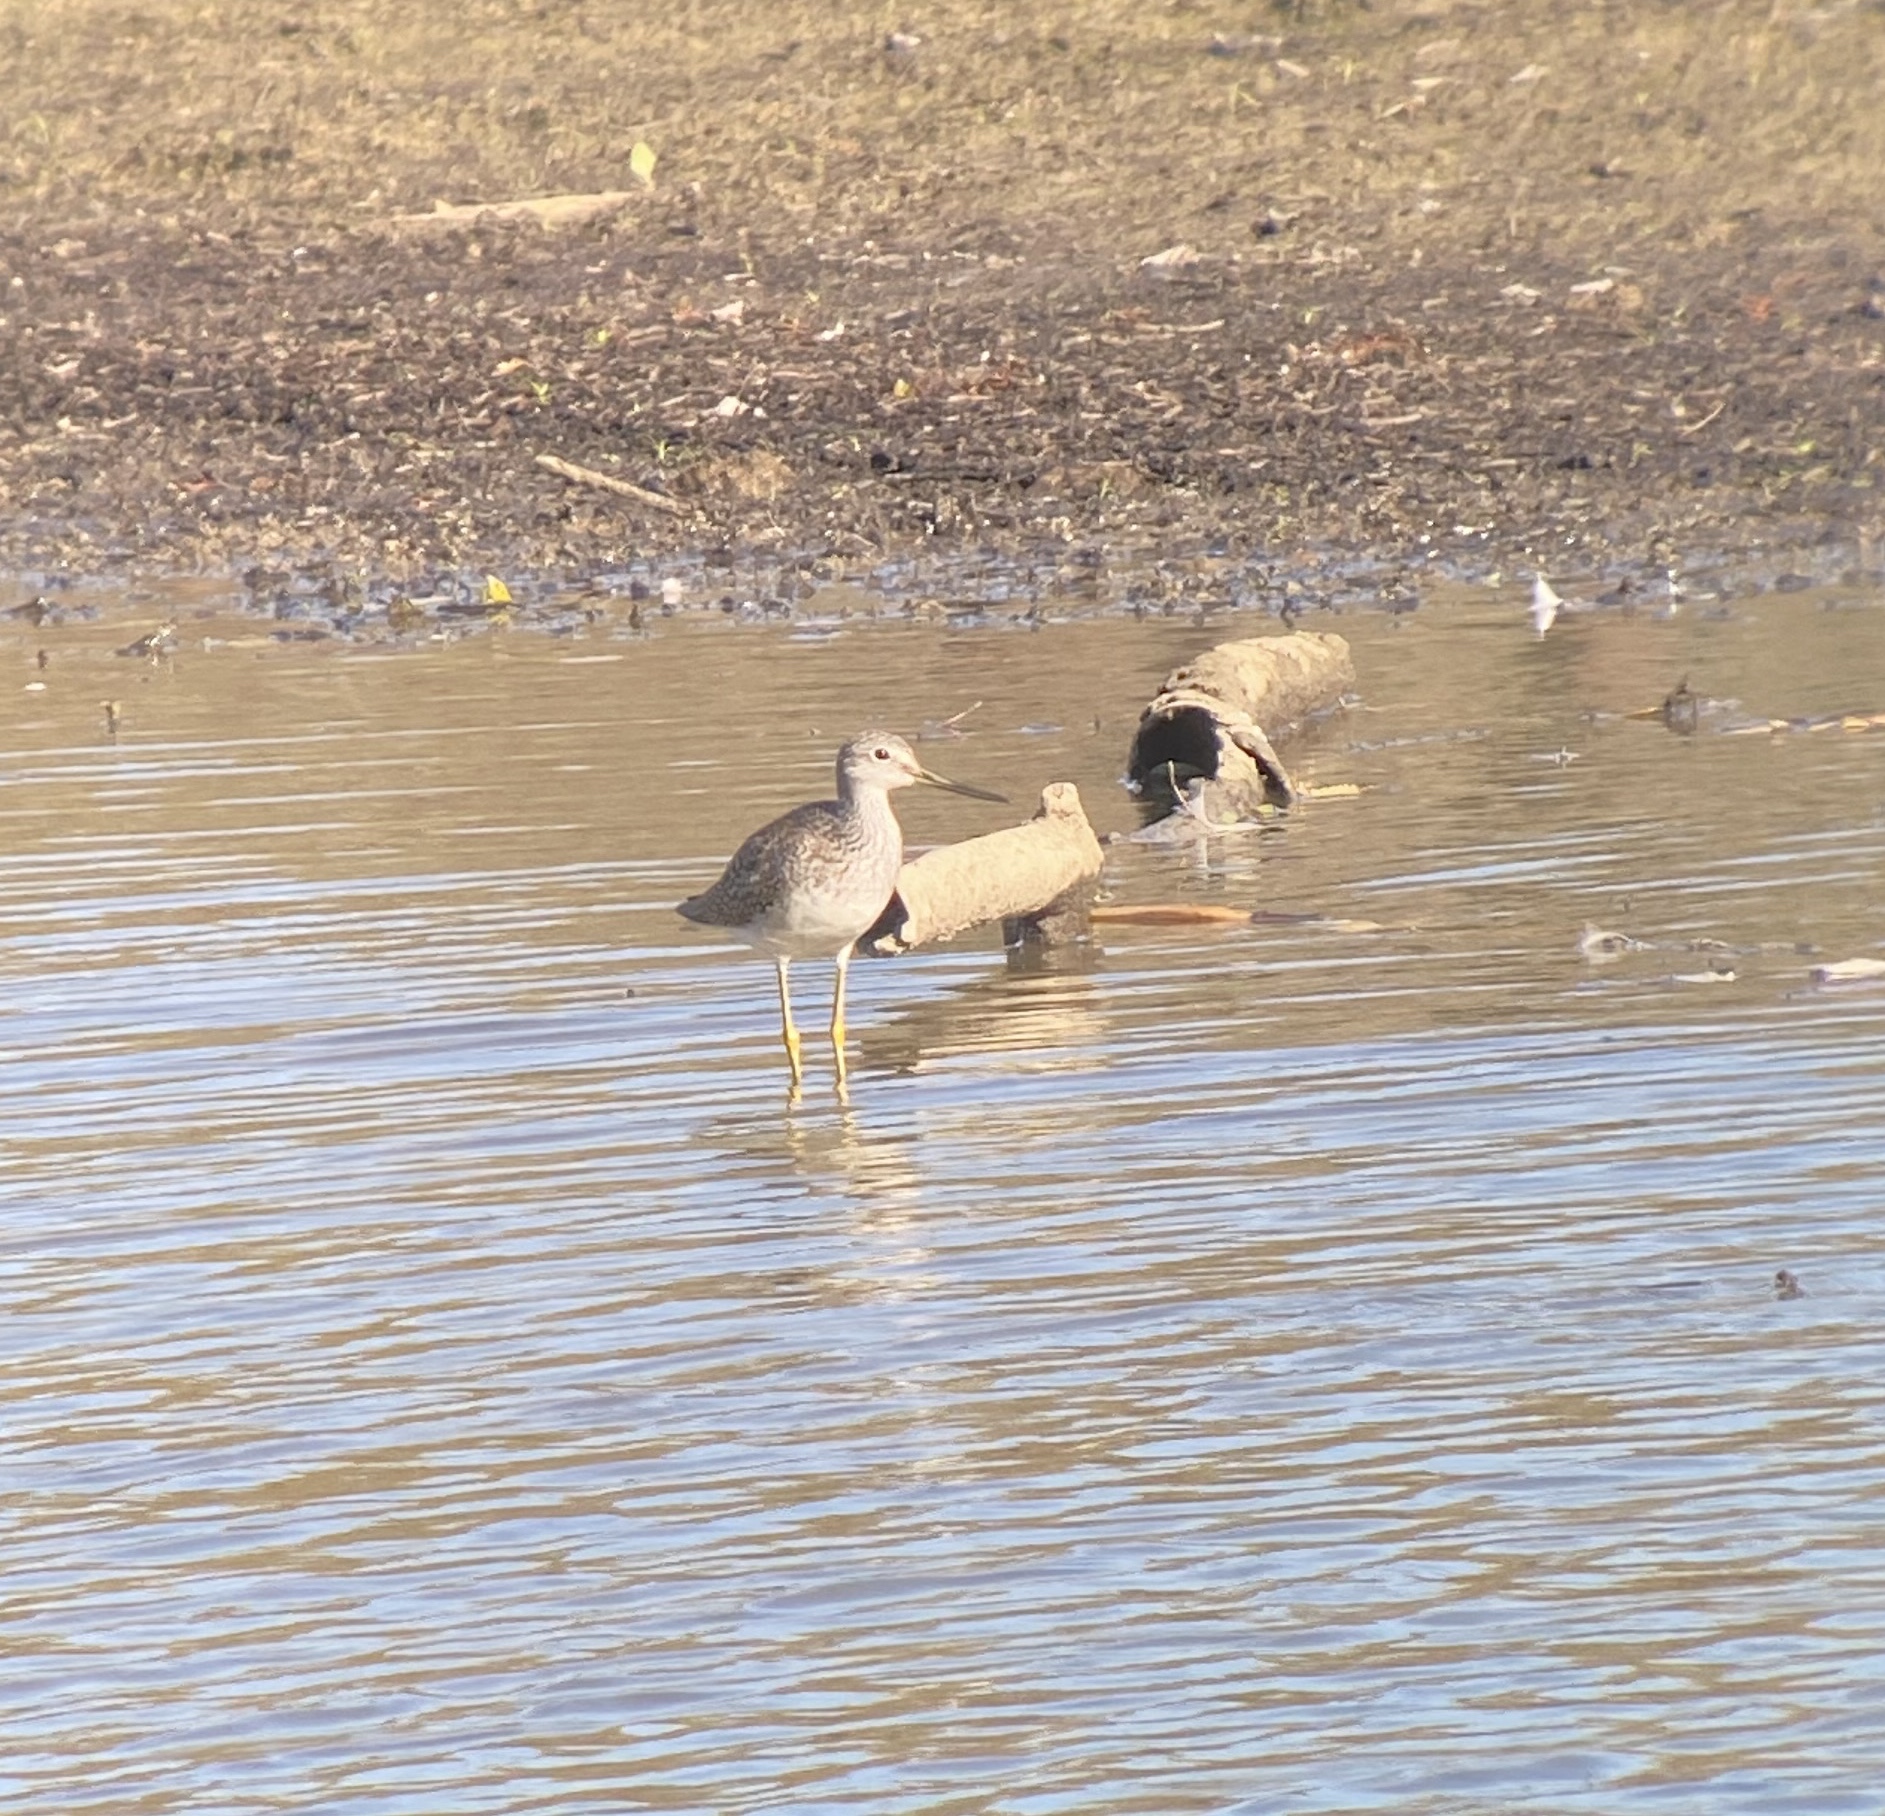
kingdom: Animalia
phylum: Chordata
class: Aves
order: Charadriiformes
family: Scolopacidae
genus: Tringa
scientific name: Tringa melanoleuca
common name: Greater yellowlegs
